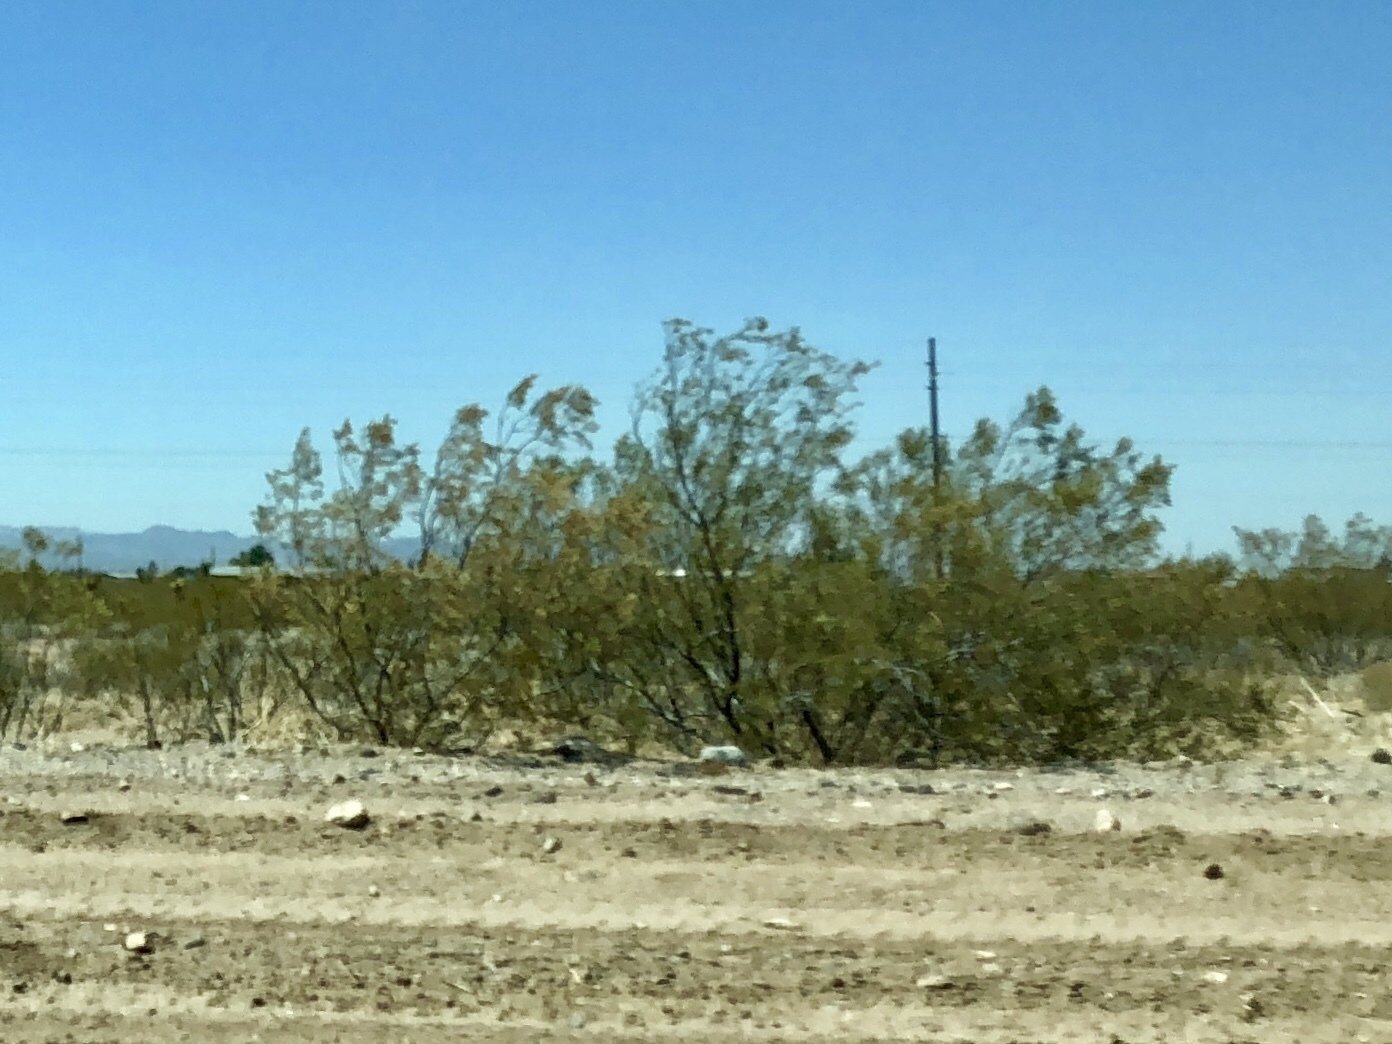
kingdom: Plantae
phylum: Tracheophyta
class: Magnoliopsida
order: Zygophyllales
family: Zygophyllaceae
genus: Larrea
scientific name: Larrea tridentata
